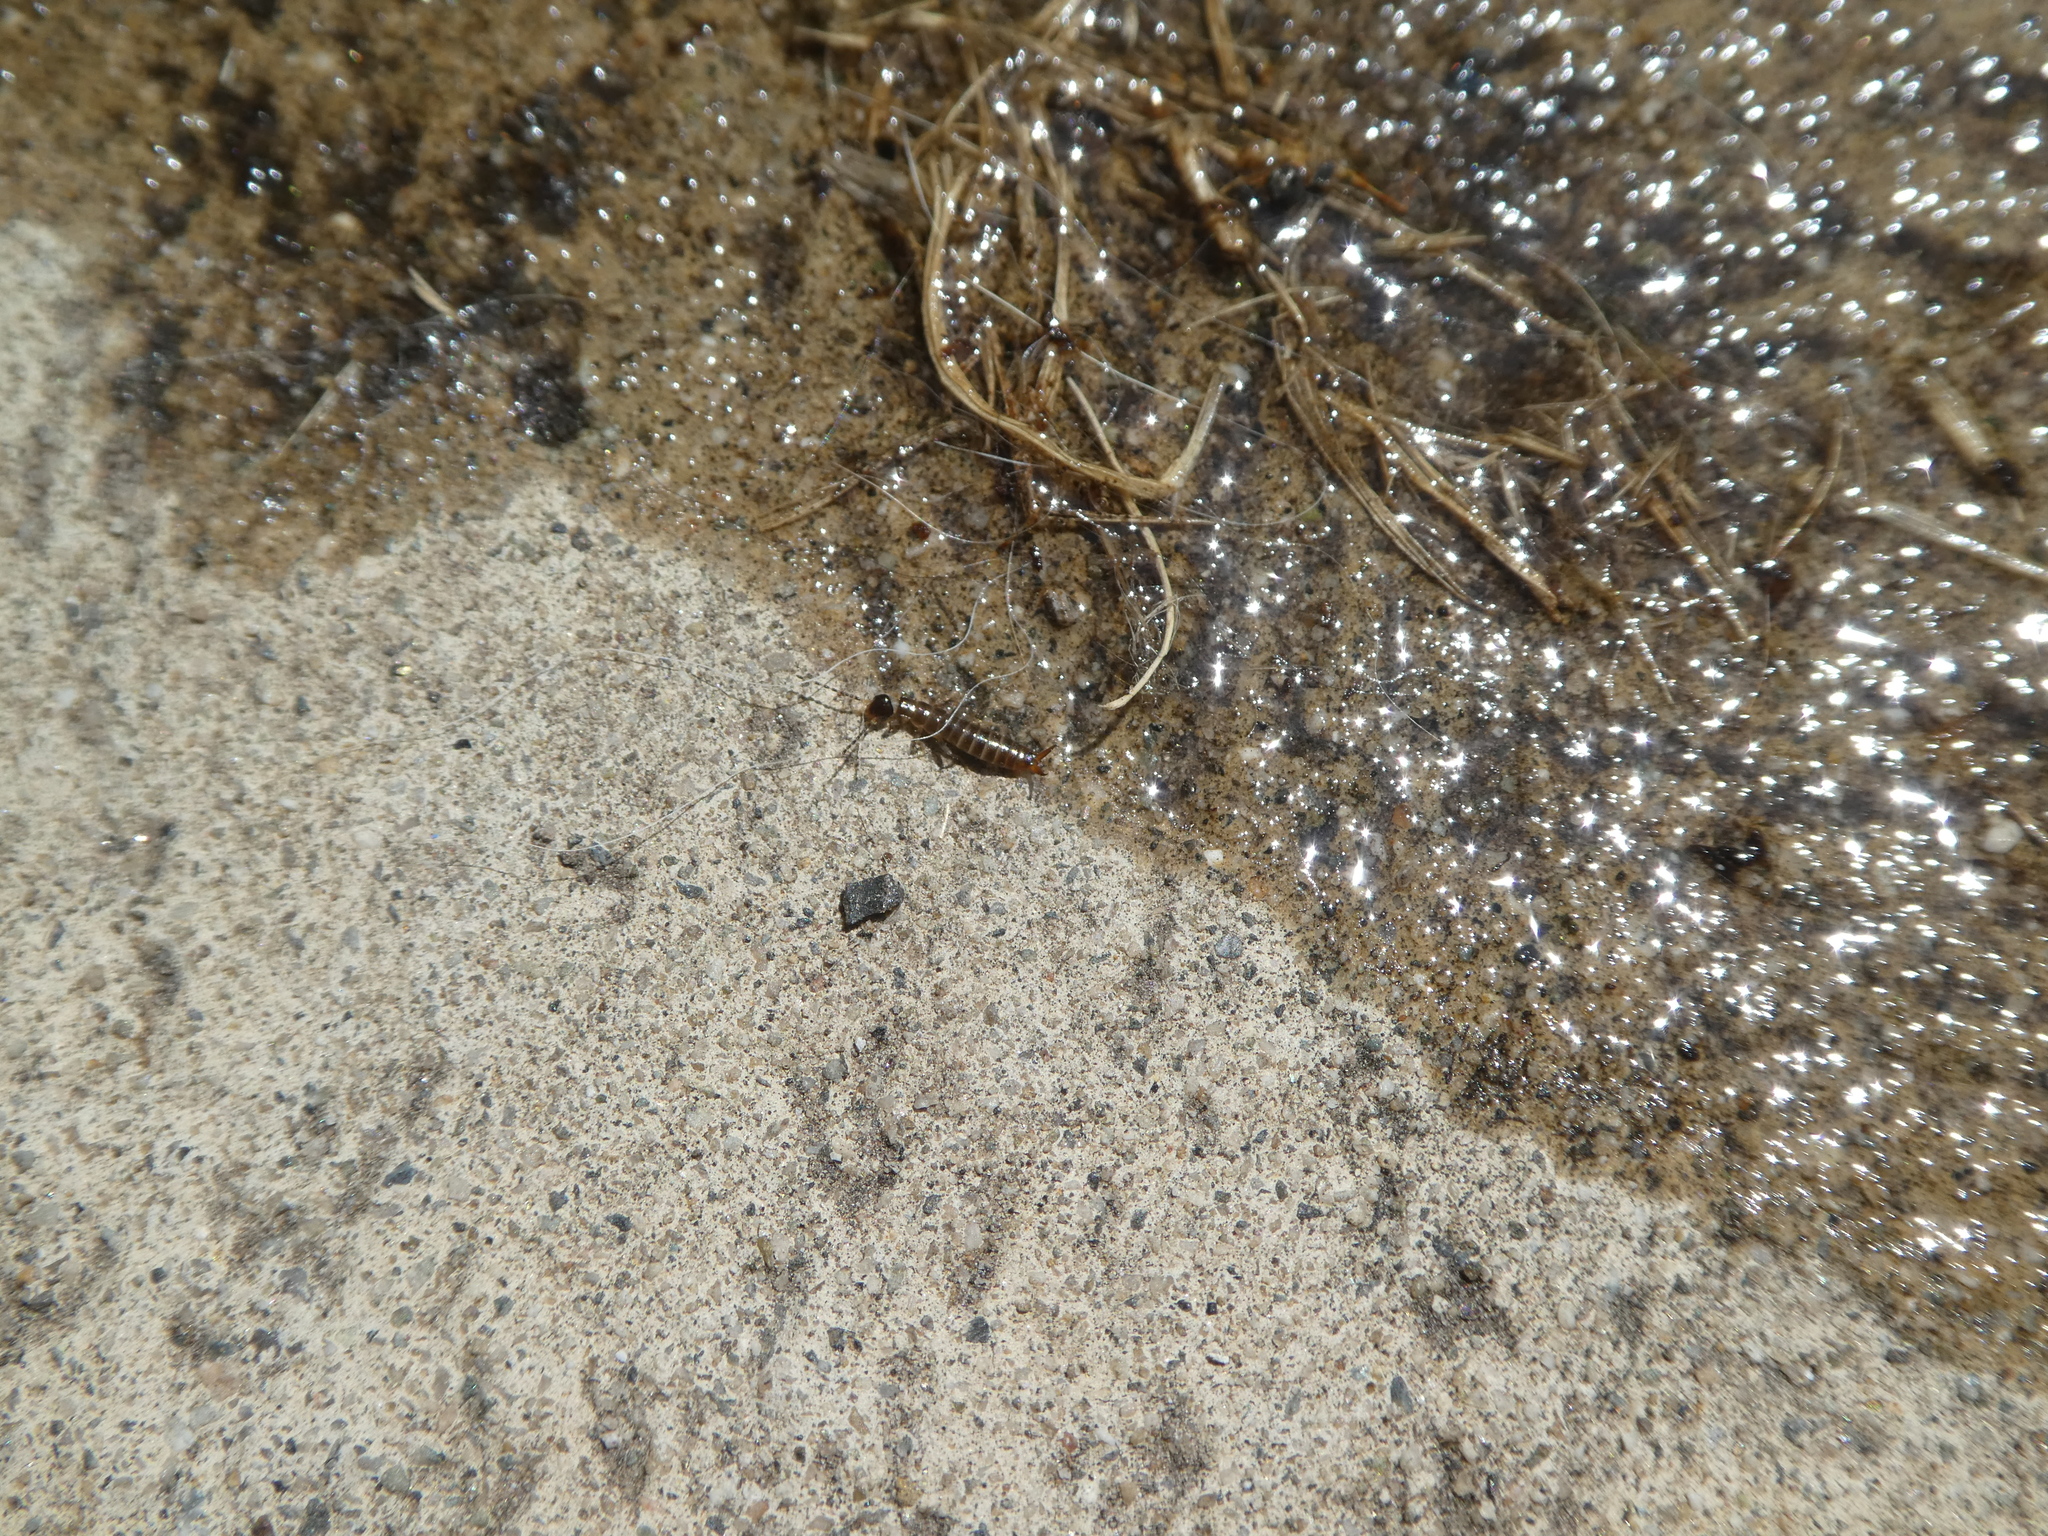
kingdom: Animalia
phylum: Arthropoda
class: Insecta
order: Dermaptera
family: Anisolabididae
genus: Euborellia
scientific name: Euborellia annulipes
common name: Ringlegged earwig
